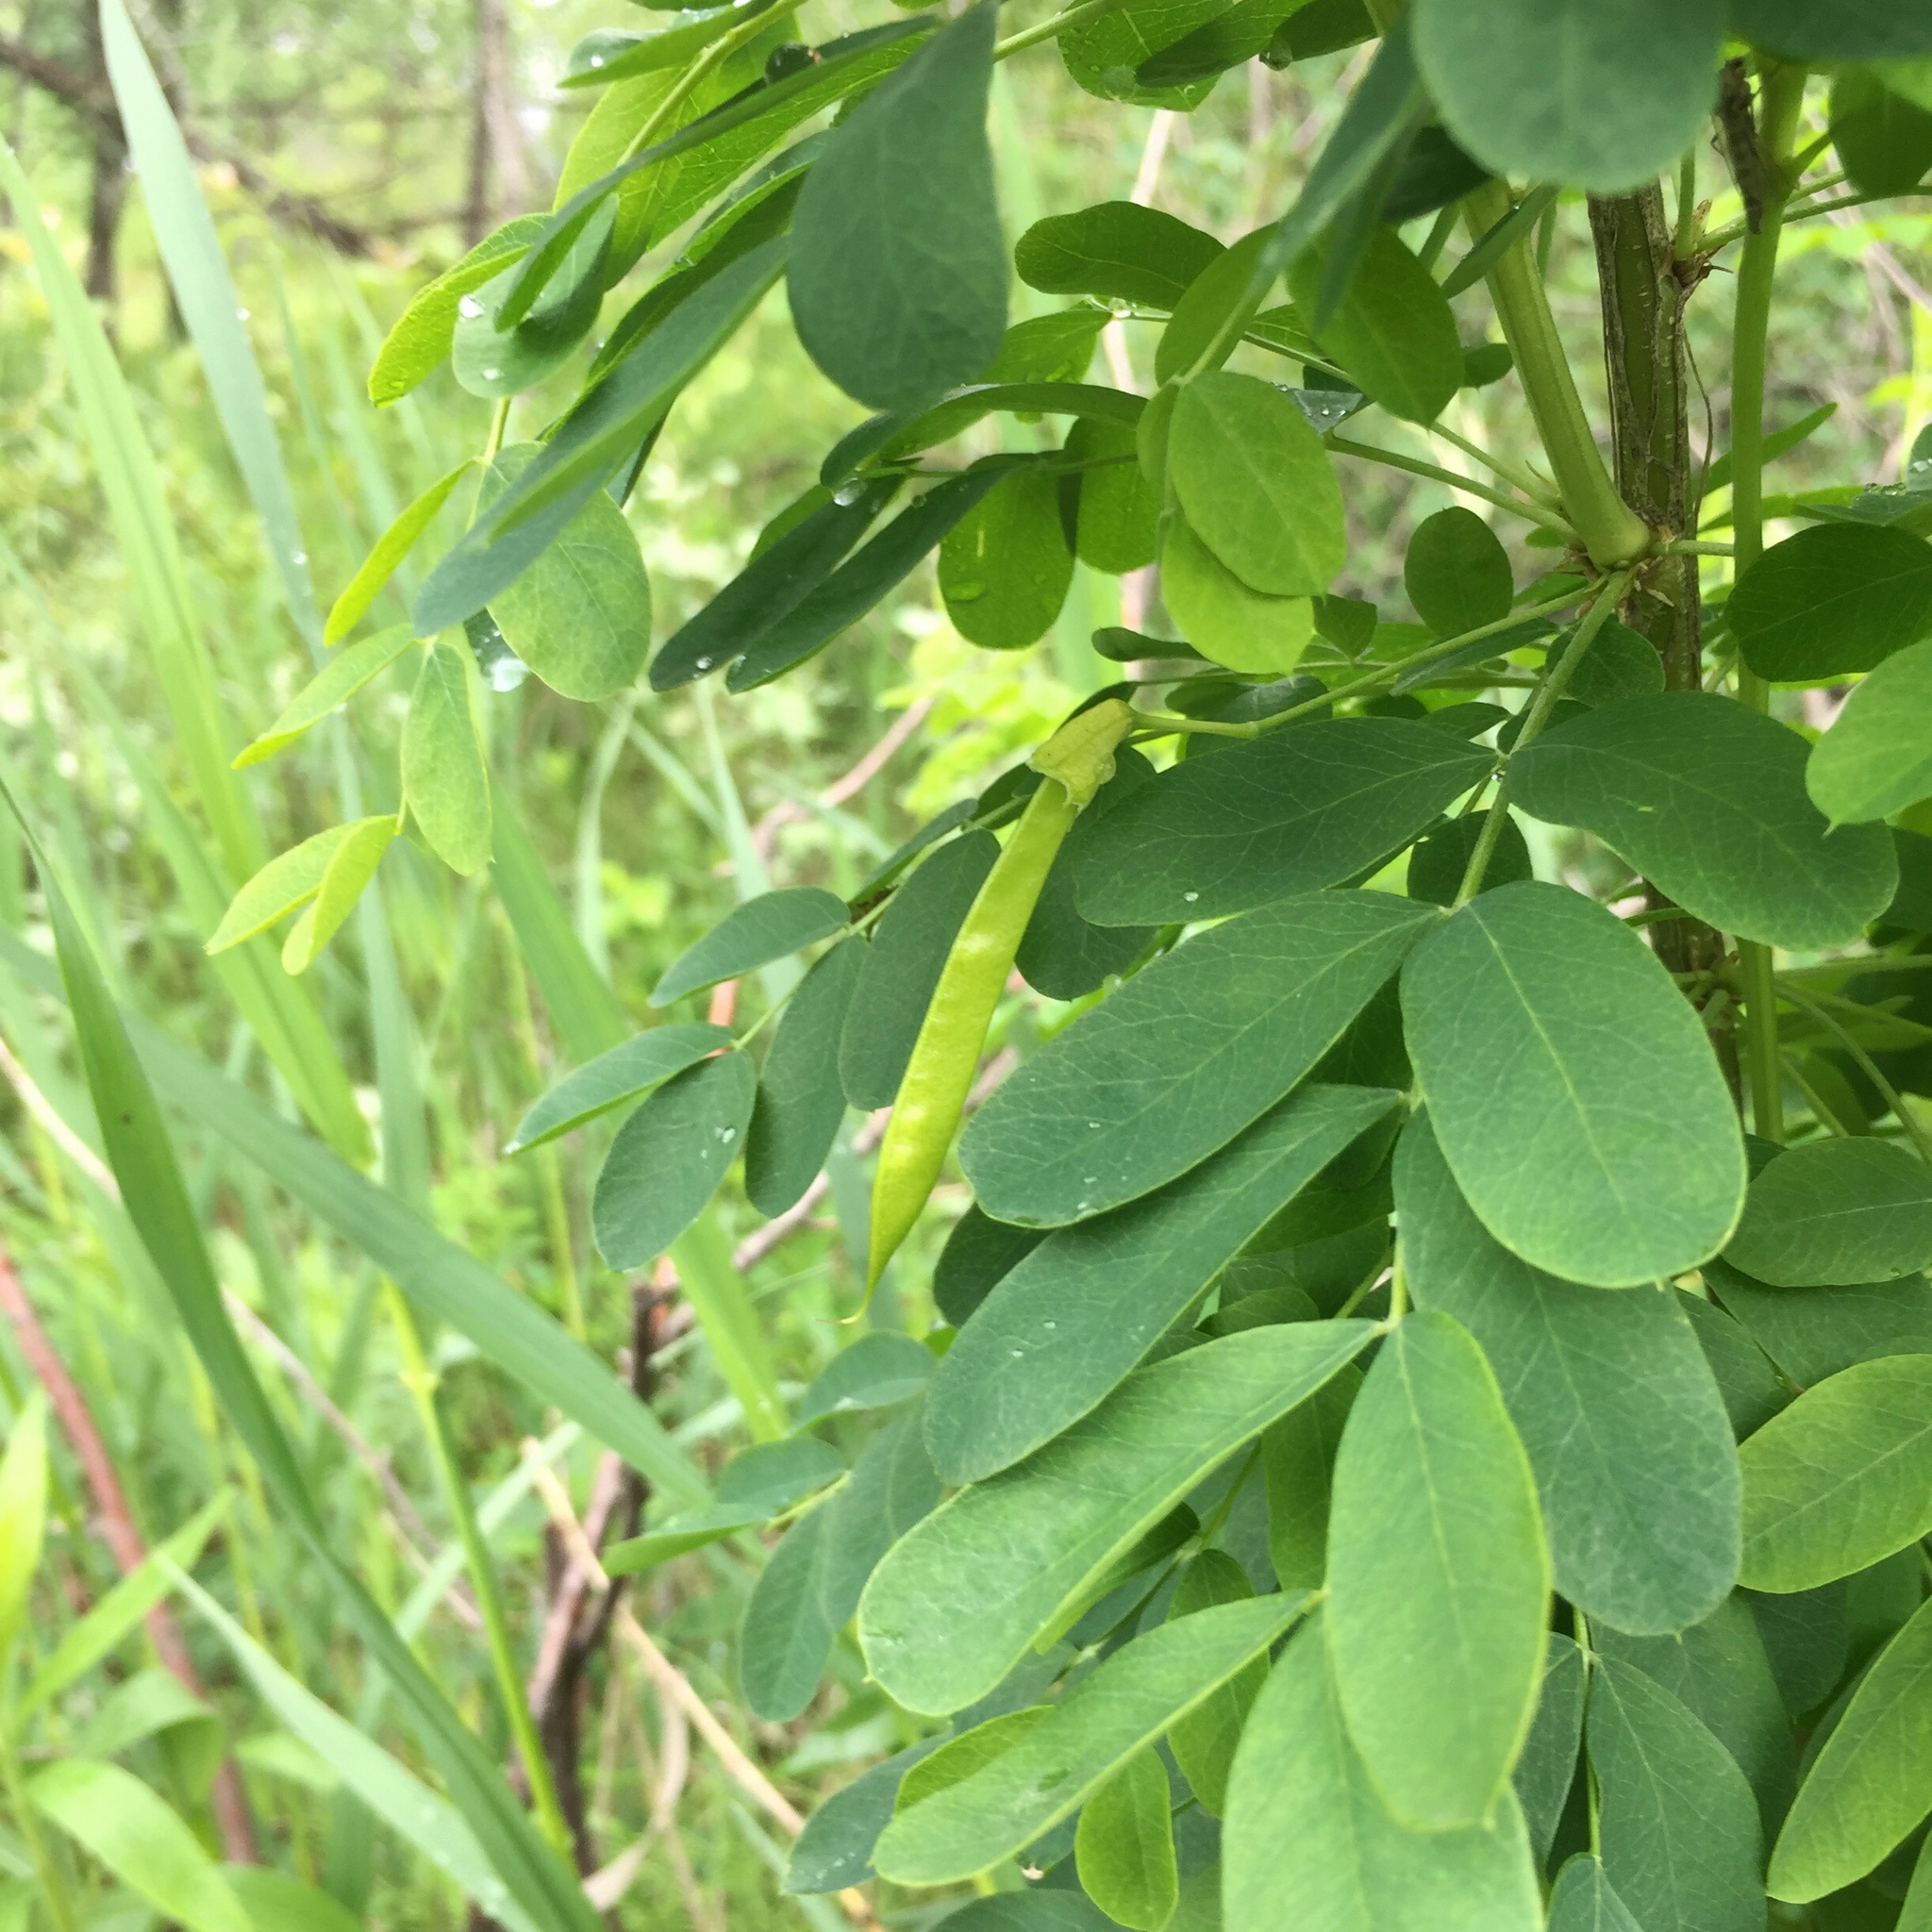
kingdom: Plantae
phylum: Tracheophyta
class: Magnoliopsida
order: Fabales
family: Fabaceae
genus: Caragana
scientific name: Caragana arborescens
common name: Siberian peashrub
